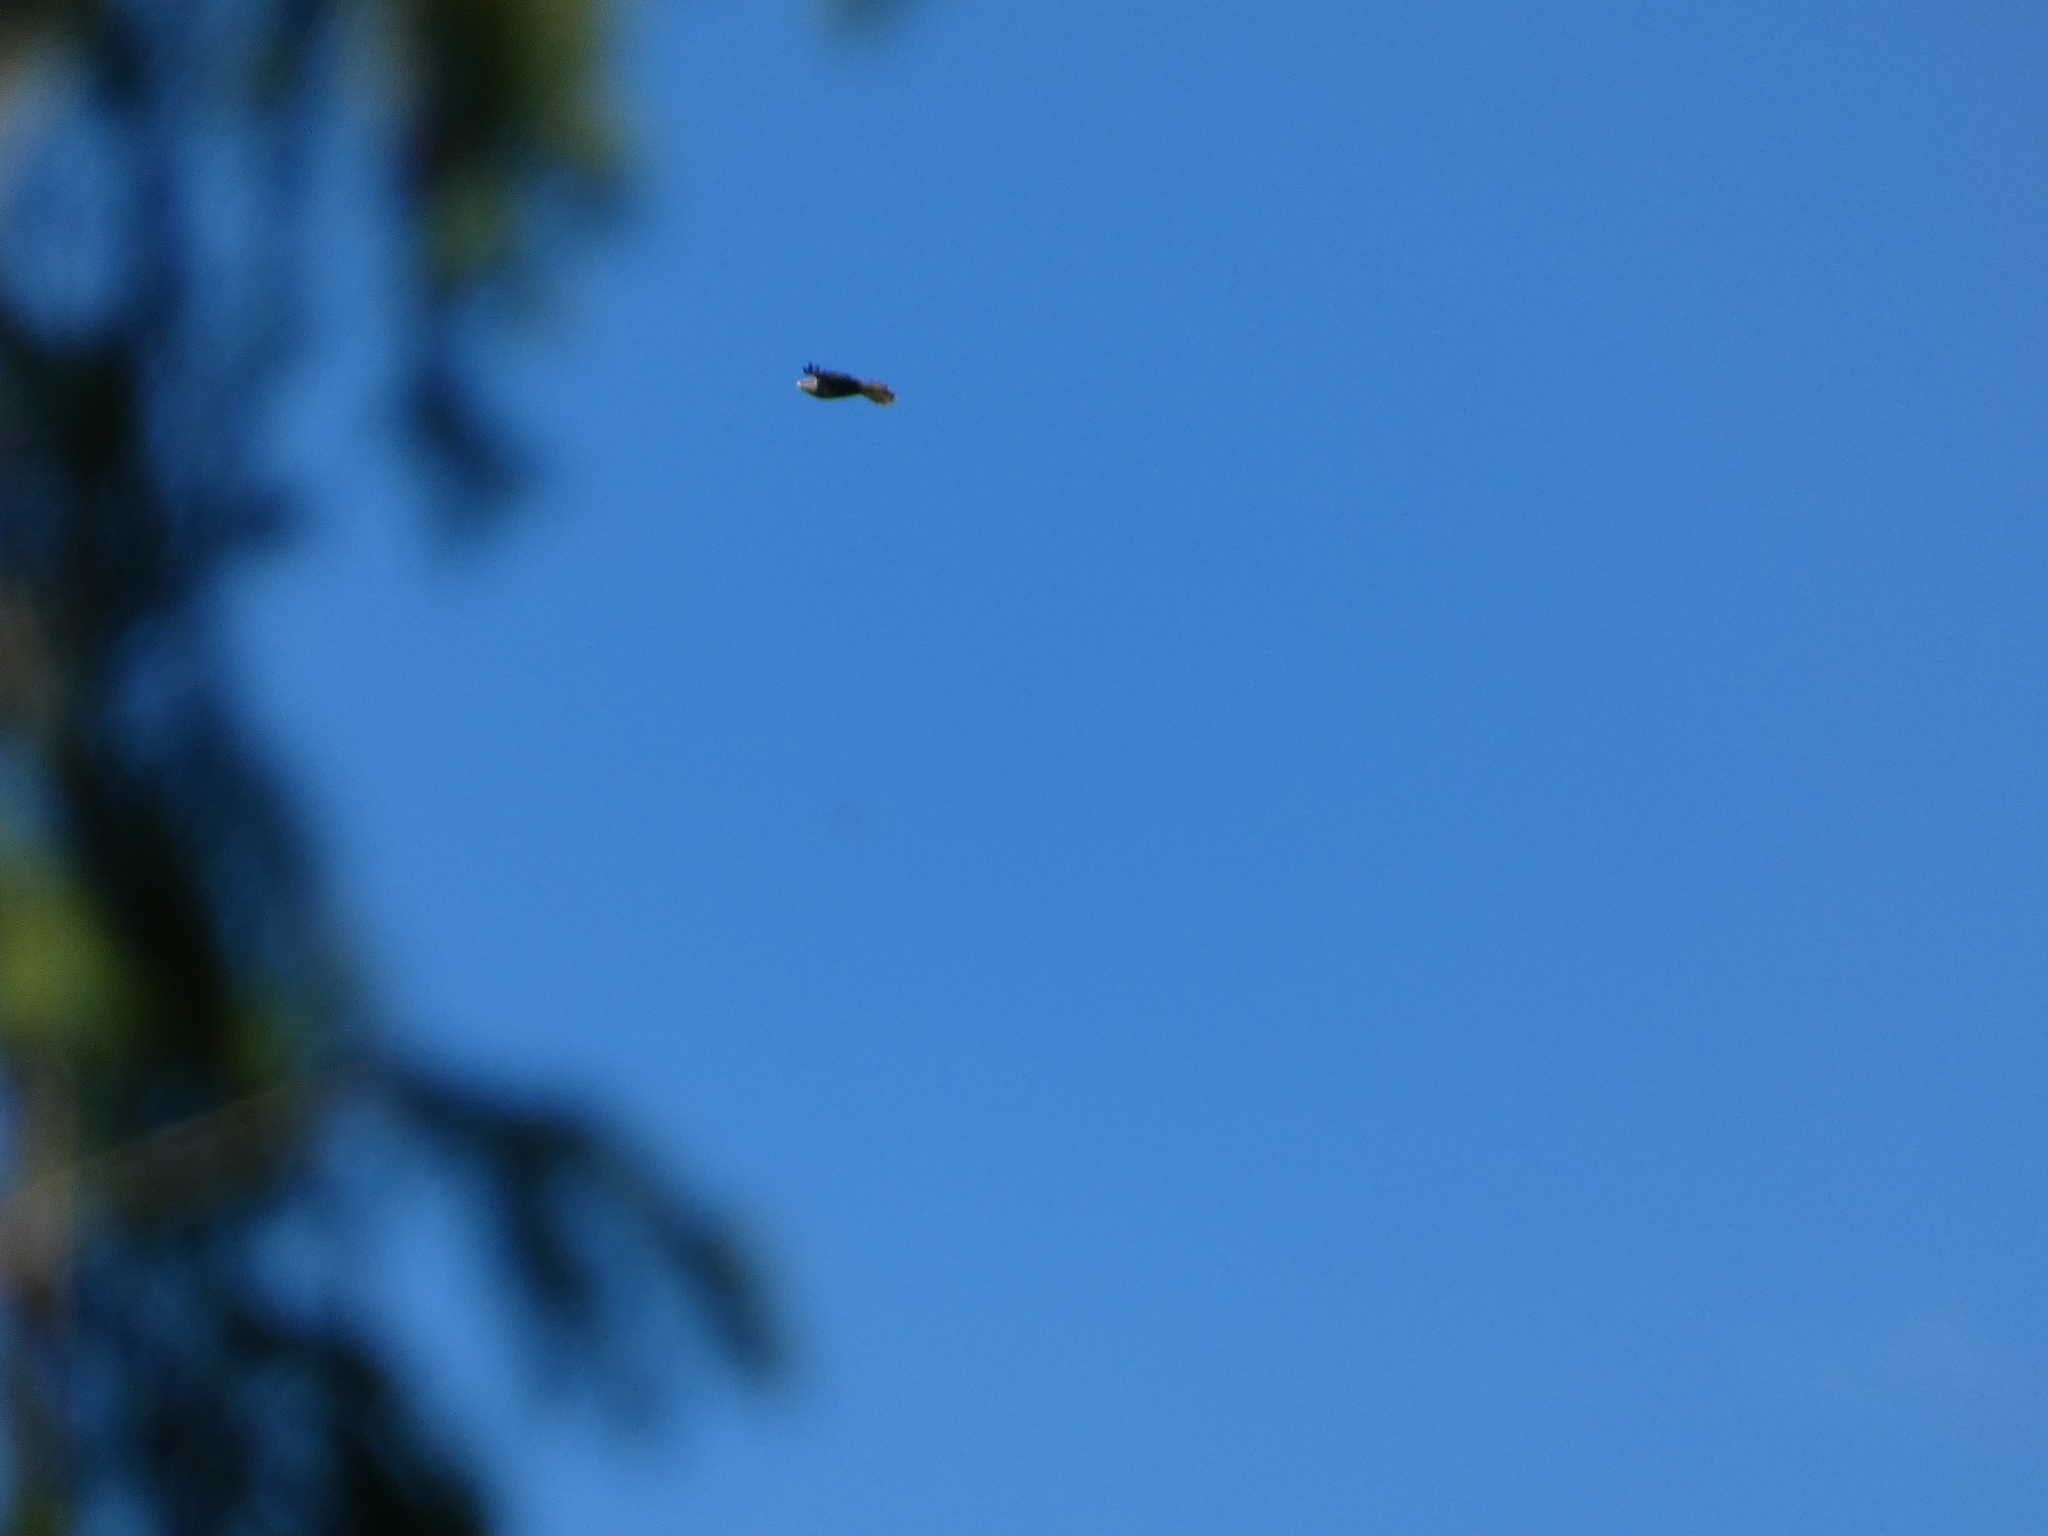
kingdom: Animalia
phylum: Chordata
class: Aves
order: Accipitriformes
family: Accipitridae
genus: Buteo
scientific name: Buteo buteo
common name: Common buzzard
